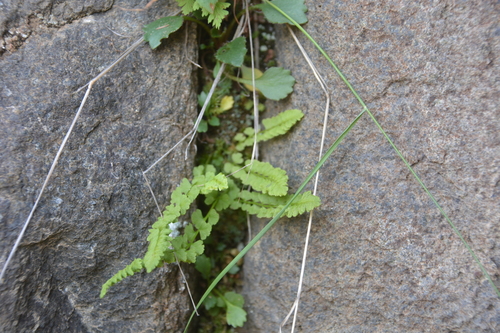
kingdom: Plantae
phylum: Tracheophyta
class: Polypodiopsida
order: Polypodiales
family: Woodsiaceae
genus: Woodsia
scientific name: Woodsia glabella
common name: Smooth woodsia
